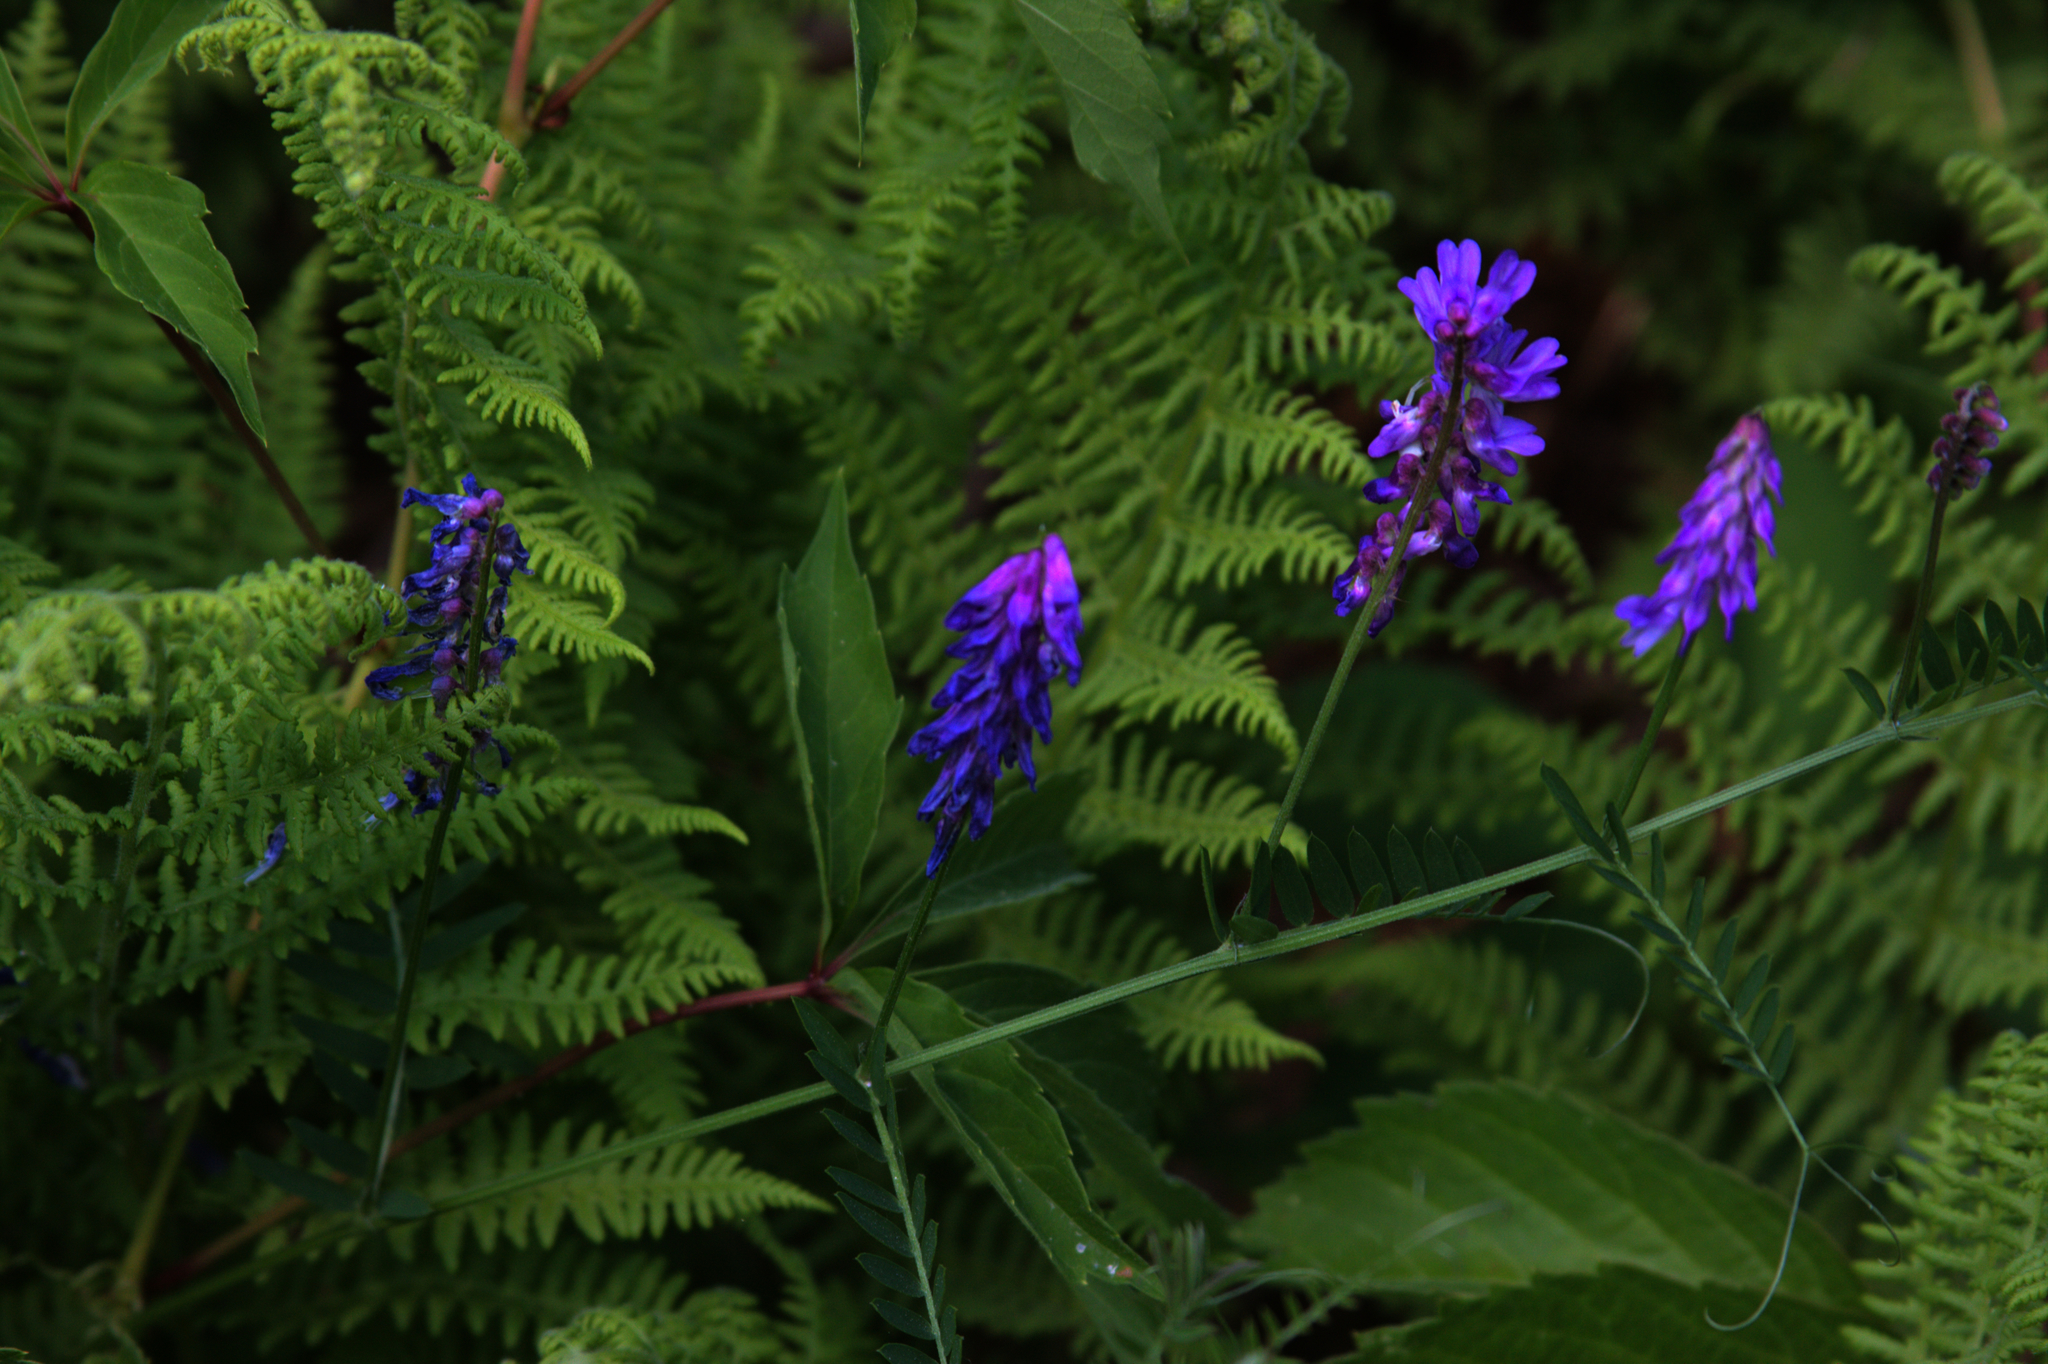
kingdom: Plantae
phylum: Tracheophyta
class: Magnoliopsida
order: Fabales
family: Fabaceae
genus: Vicia
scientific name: Vicia cracca
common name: Bird vetch
